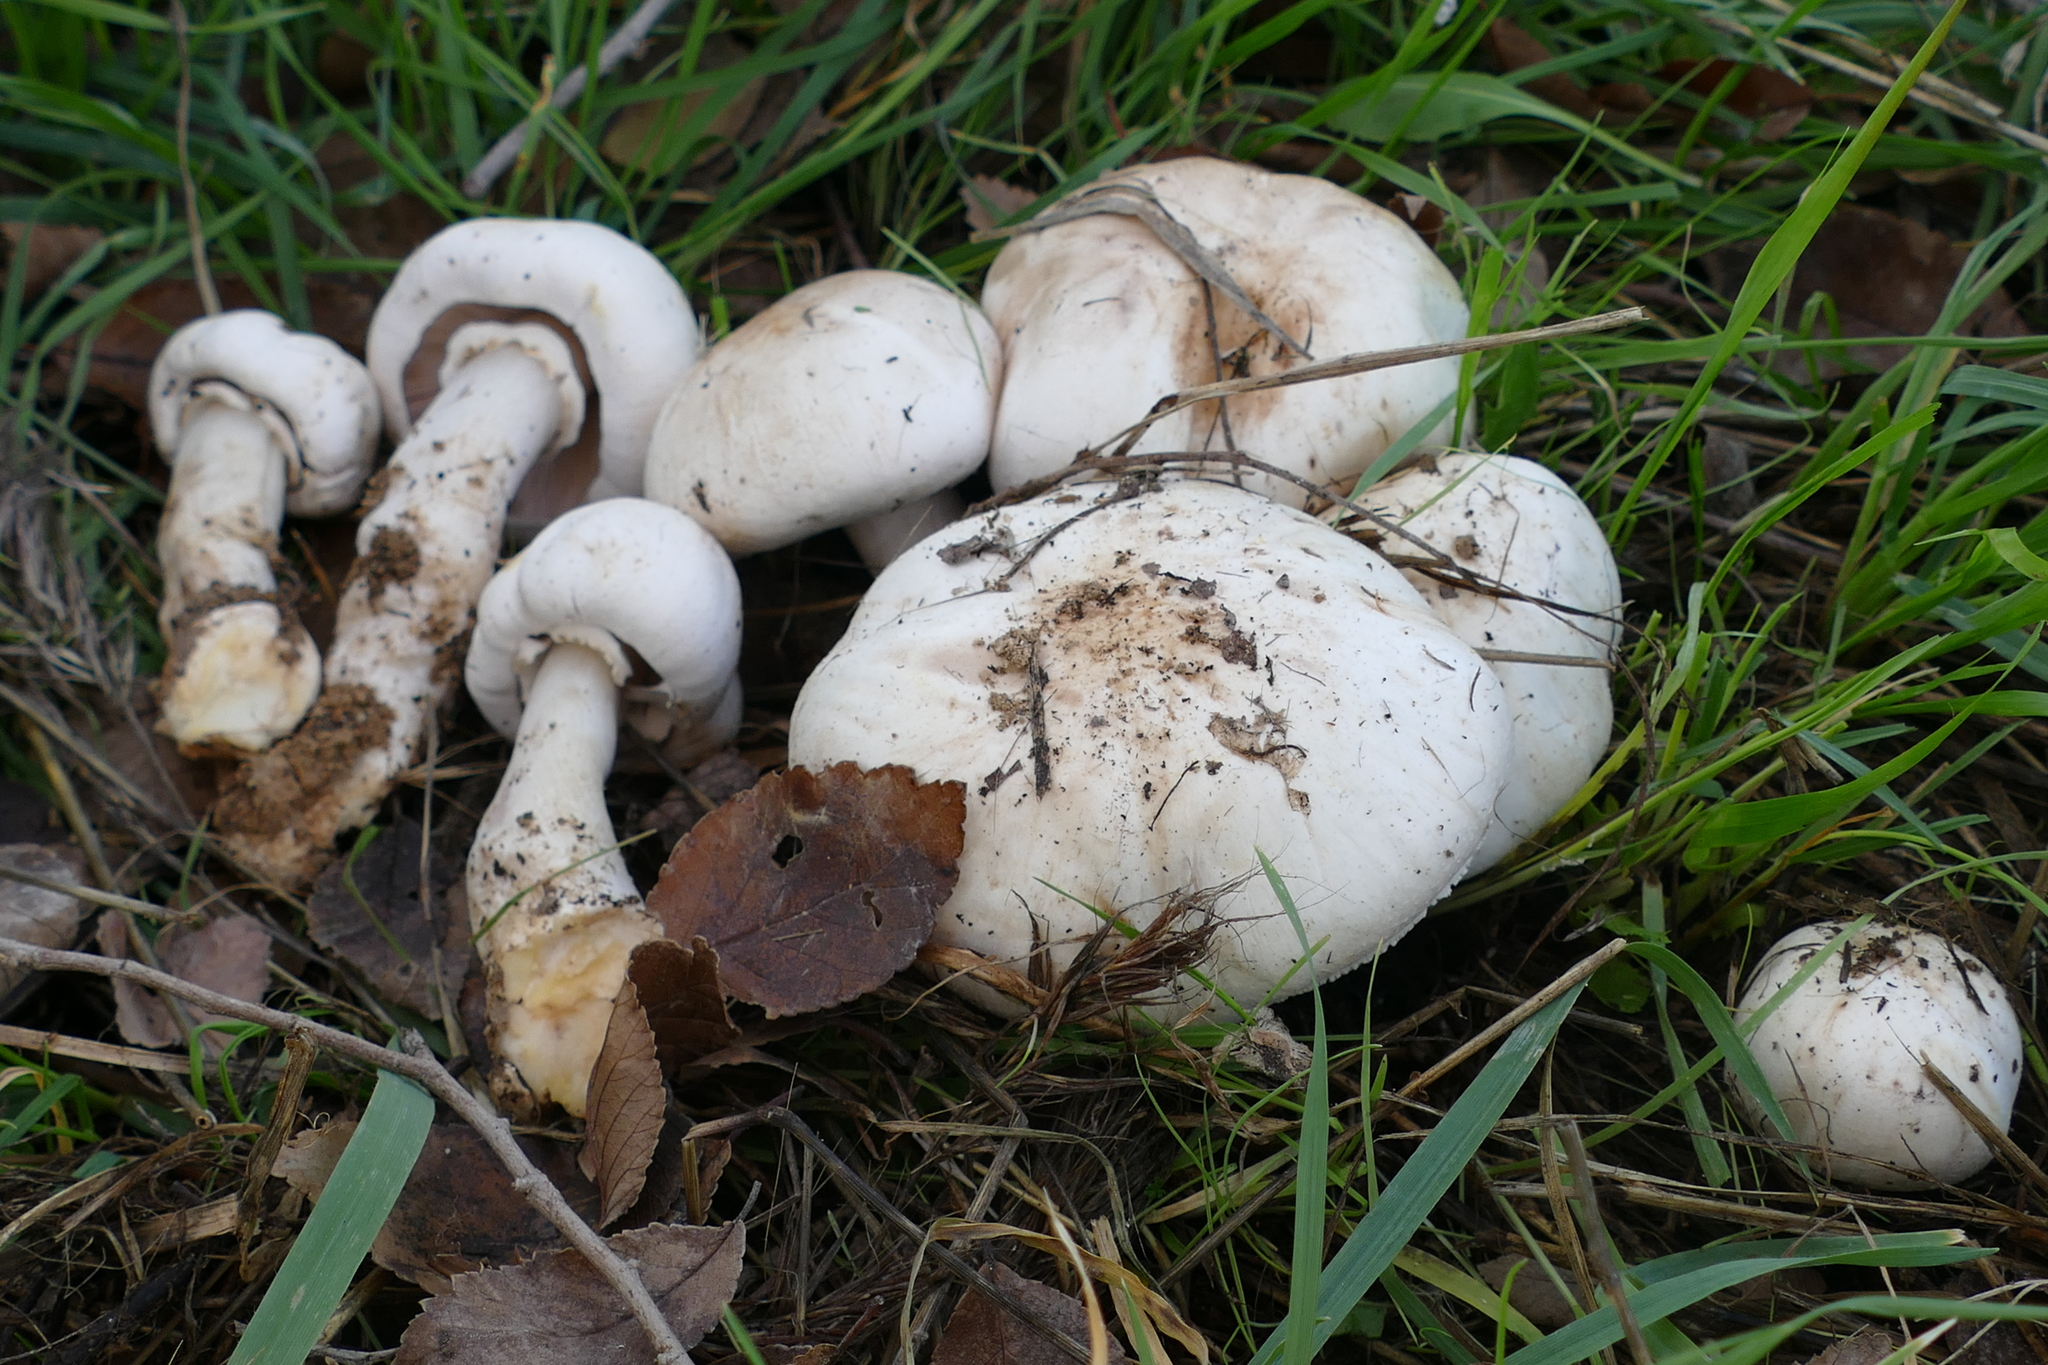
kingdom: Fungi
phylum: Basidiomycota
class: Agaricomycetes
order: Agaricales
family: Agaricaceae
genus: Agaricus
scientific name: Agaricus xanthodermus
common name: Yellow stainer
